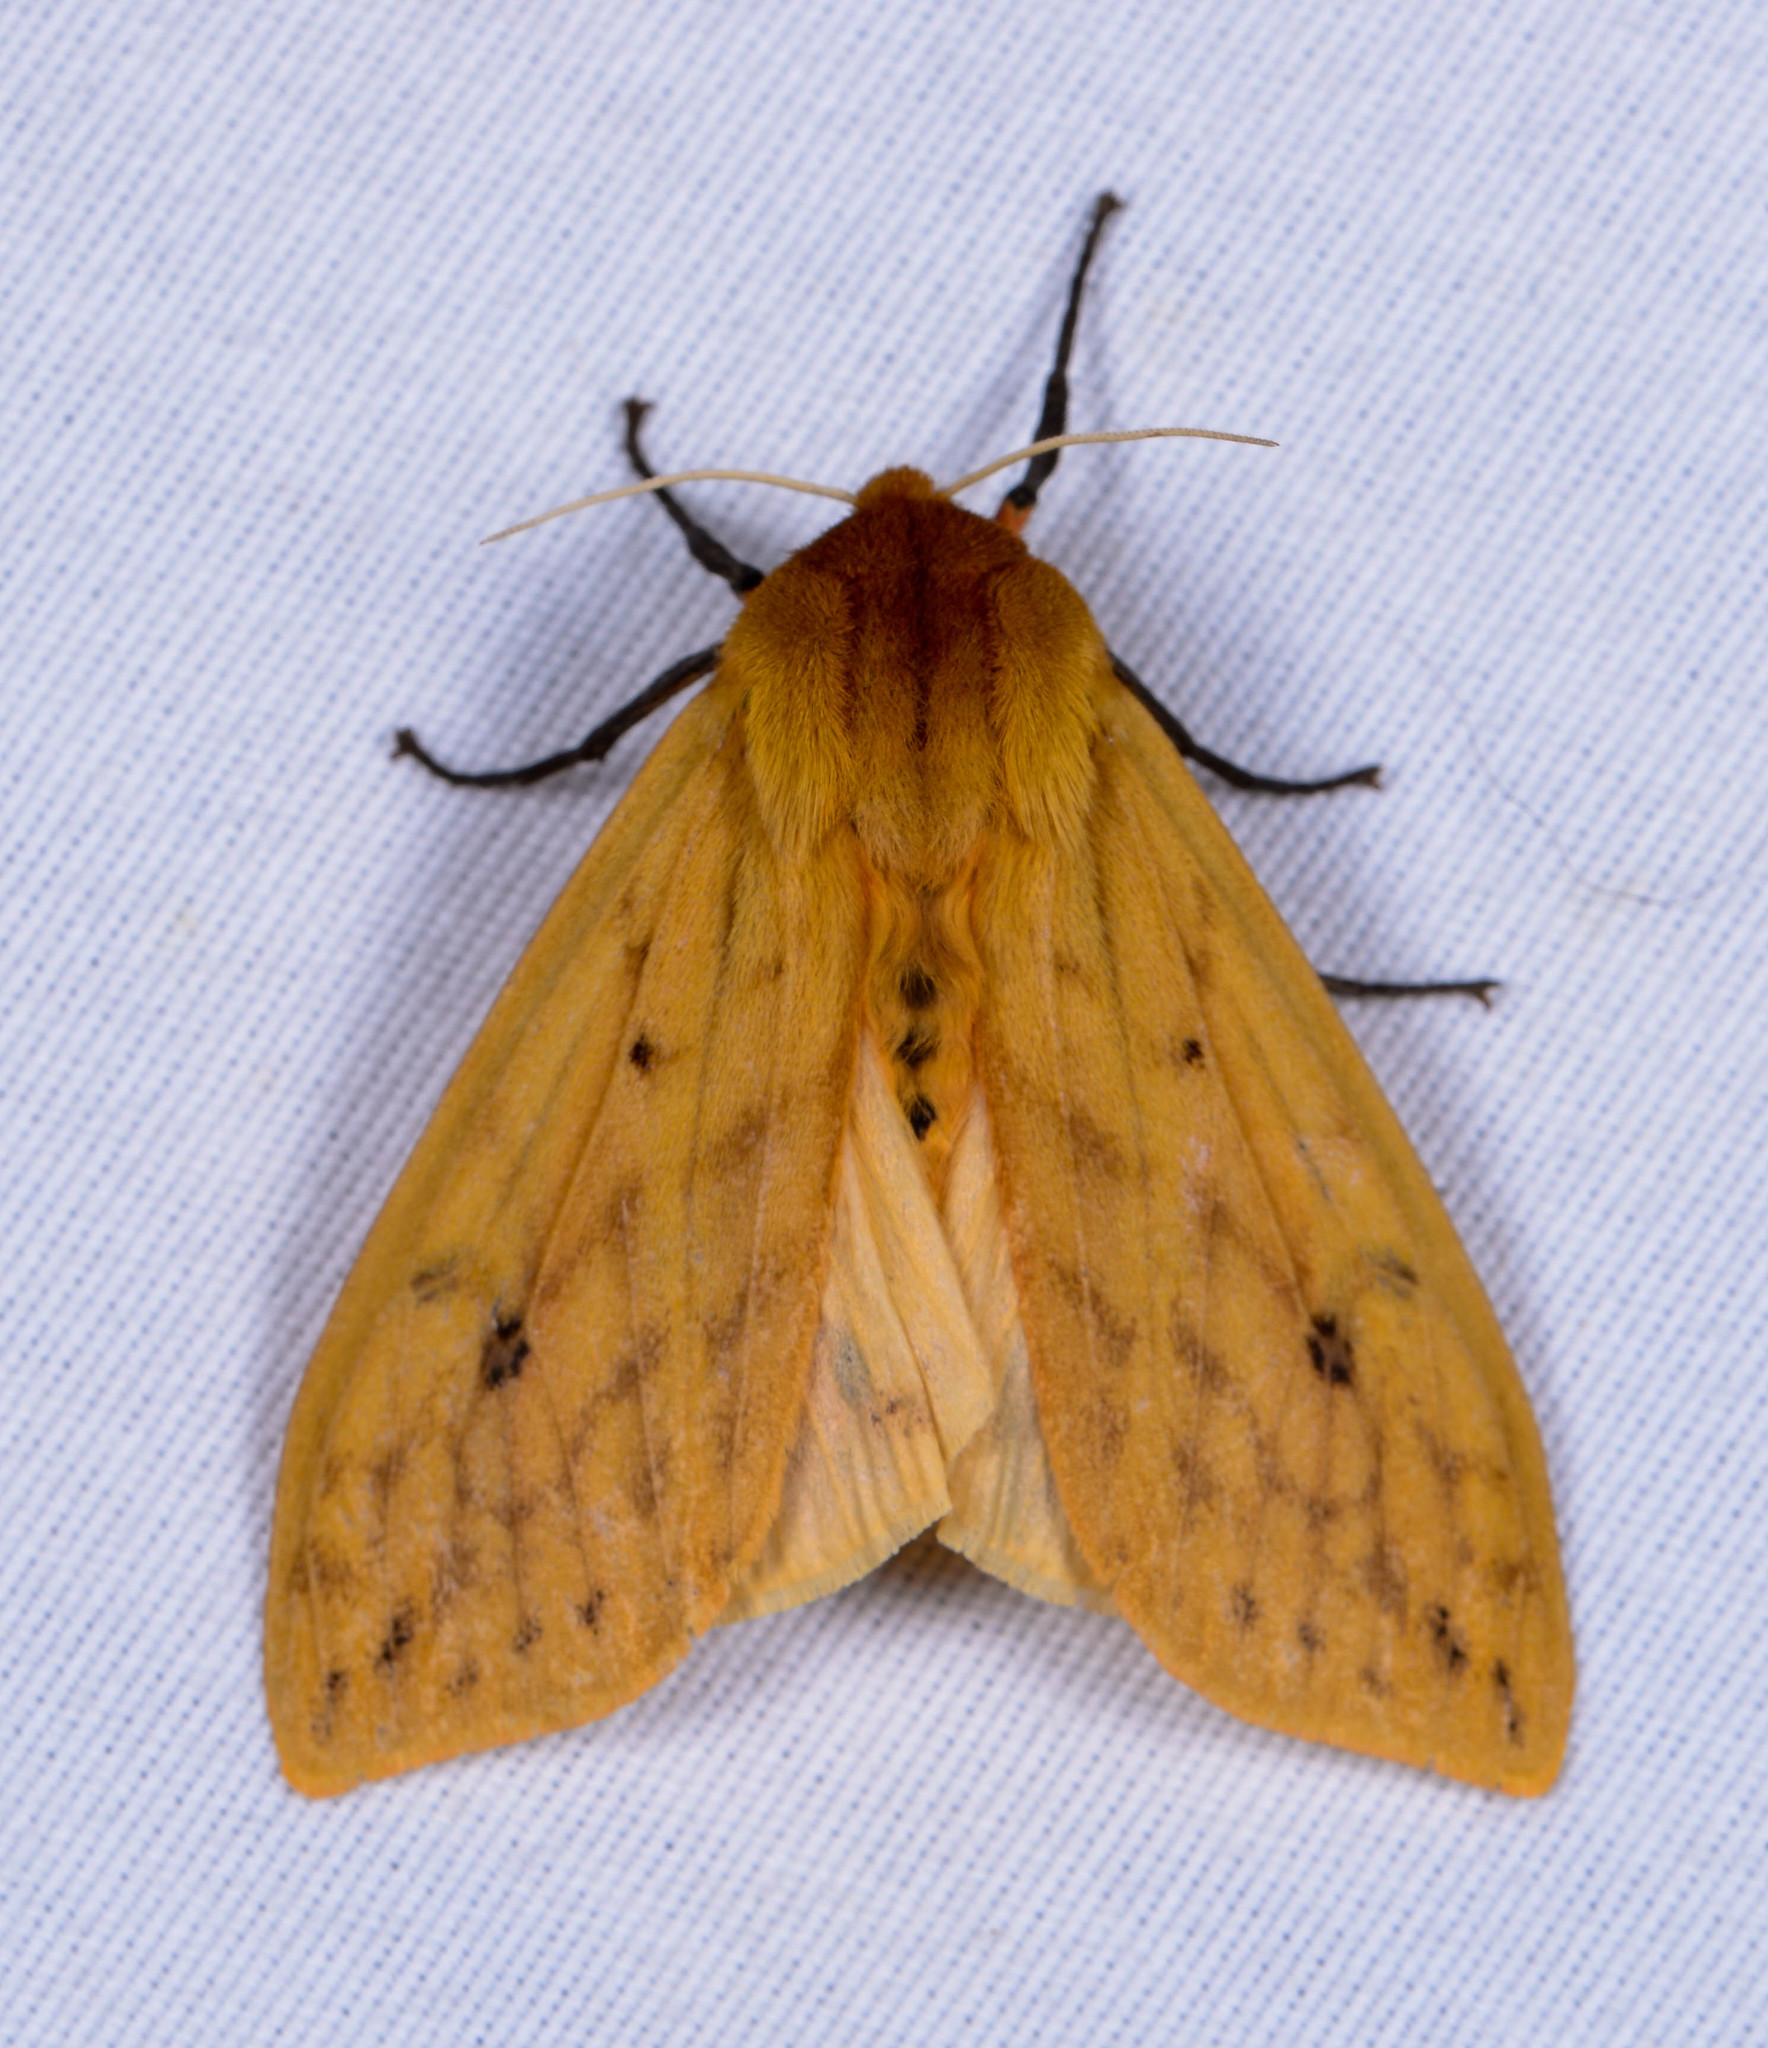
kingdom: Animalia
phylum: Arthropoda
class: Insecta
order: Lepidoptera
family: Erebidae
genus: Pyrrharctia
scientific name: Pyrrharctia isabella
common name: Isabella tiger moth
